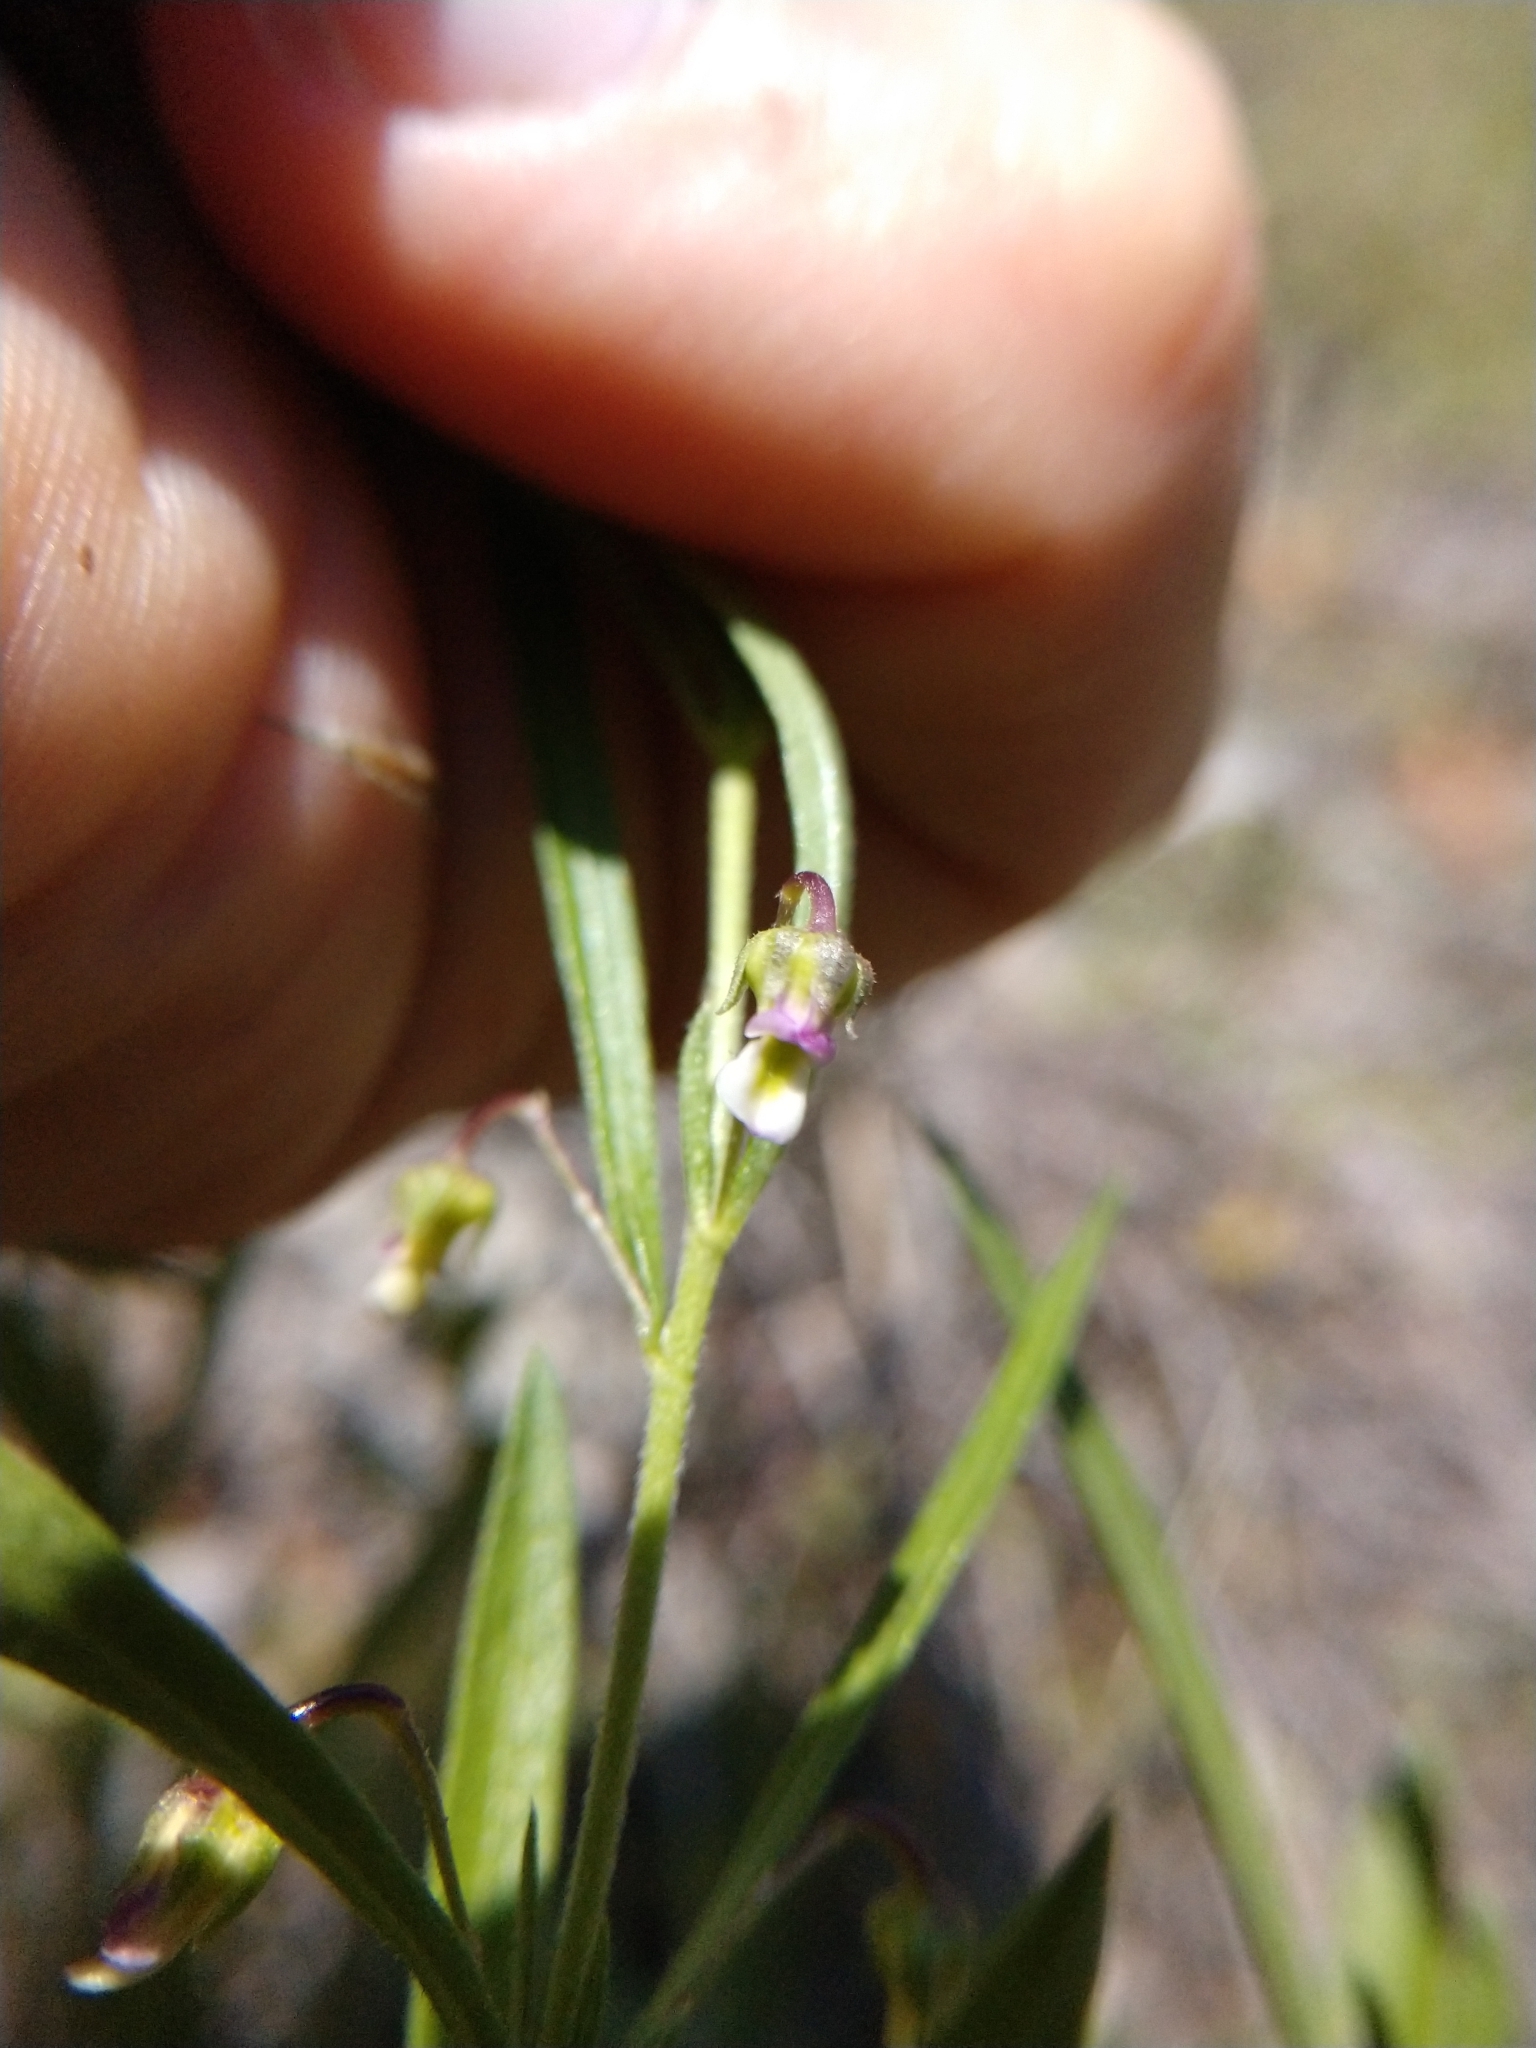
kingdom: Plantae
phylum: Tracheophyta
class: Magnoliopsida
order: Malpighiales
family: Violaceae
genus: Pombalia
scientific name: Pombalia verticillata
